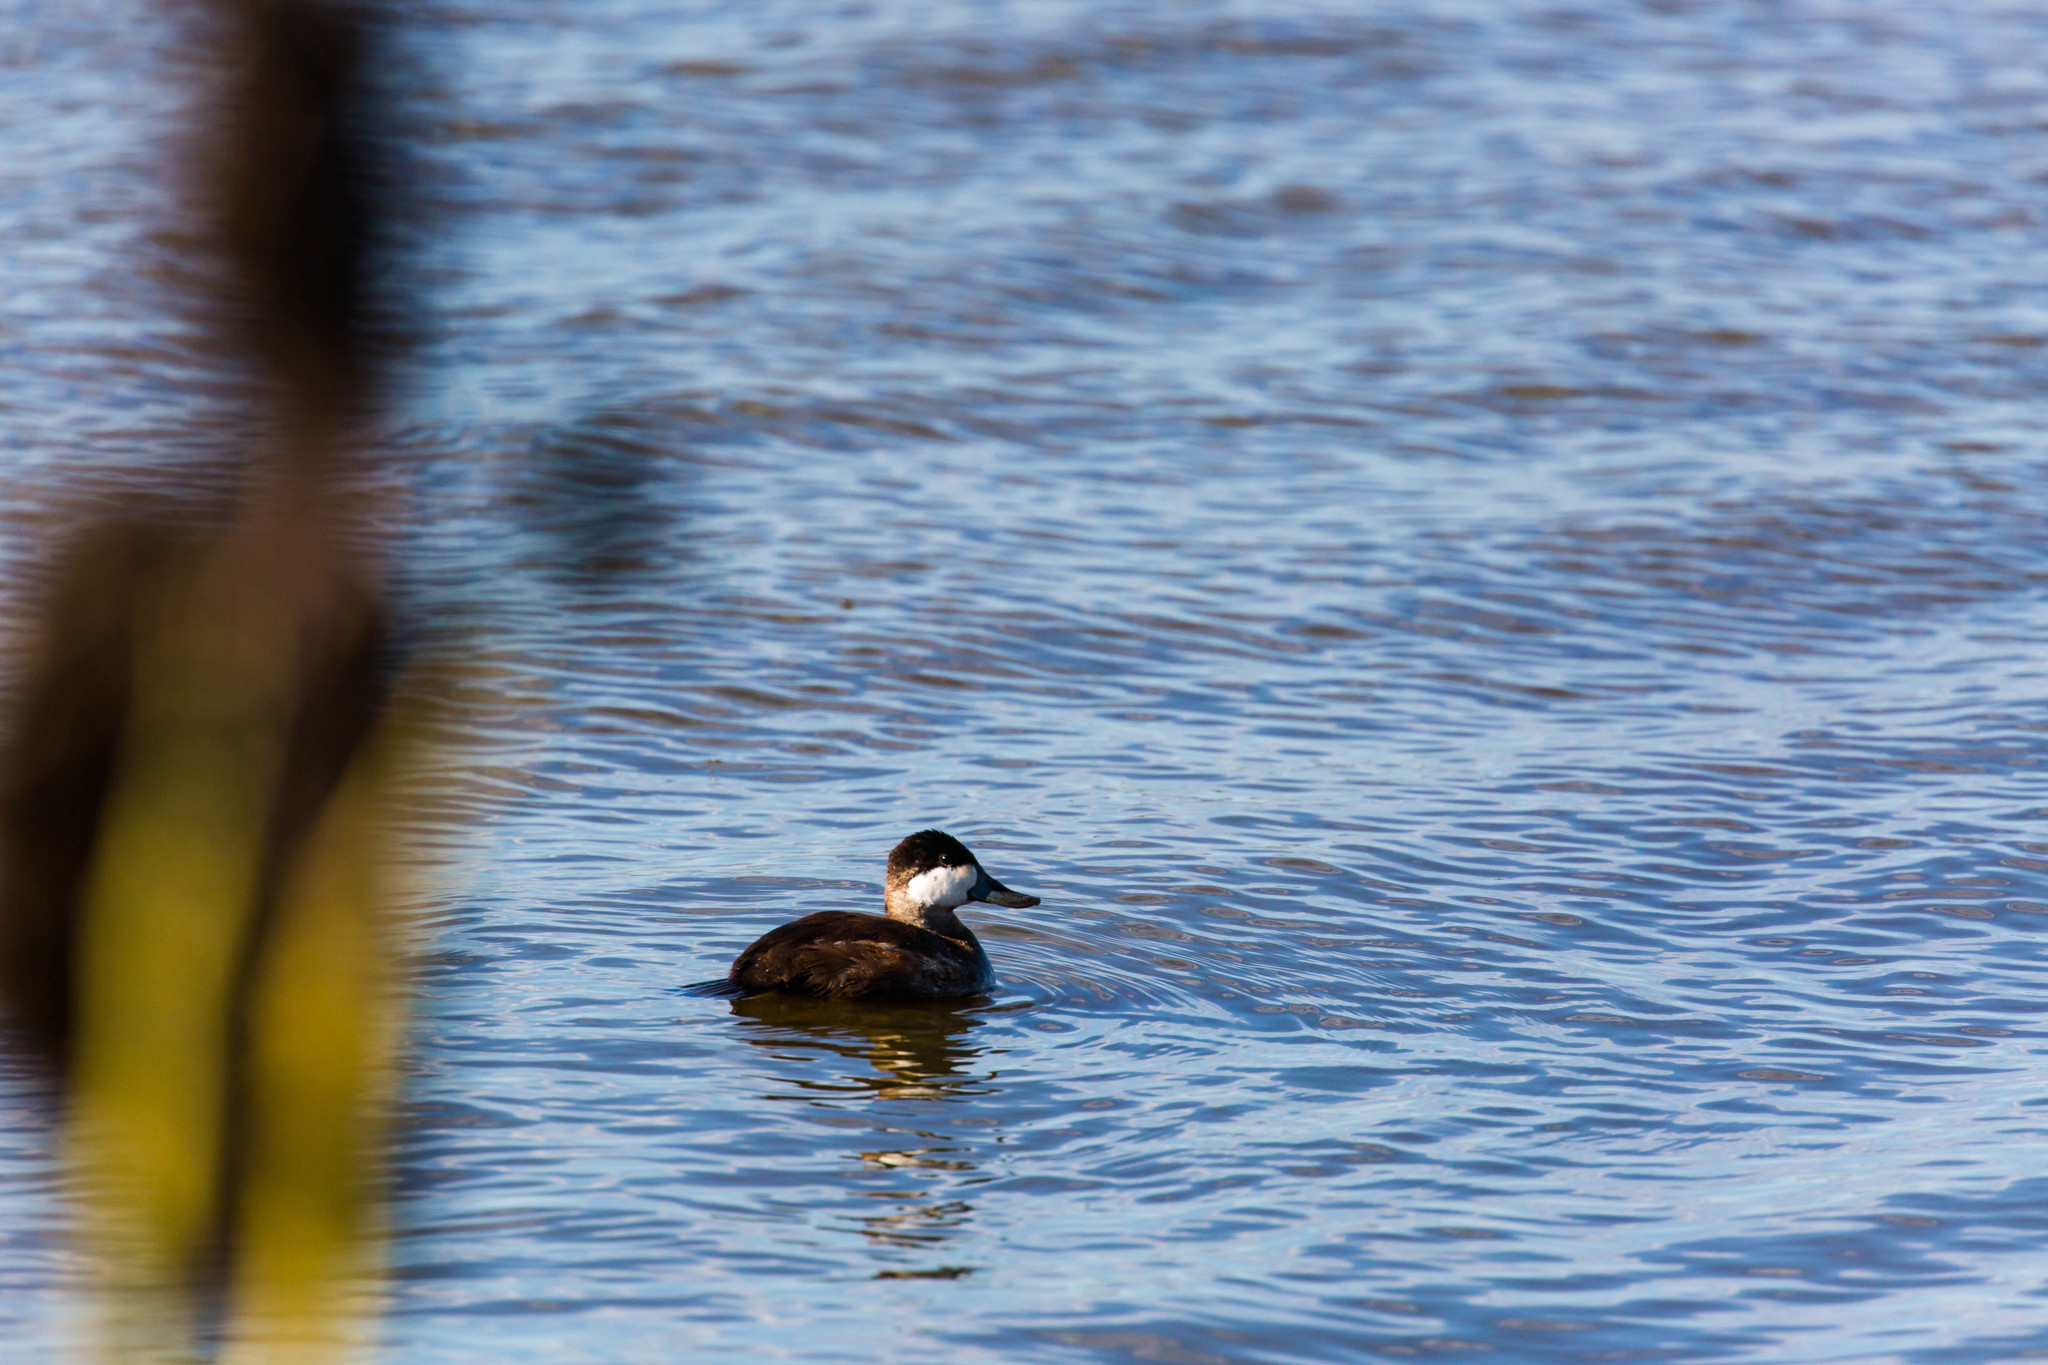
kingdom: Animalia
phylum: Chordata
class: Aves
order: Anseriformes
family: Anatidae
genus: Oxyura
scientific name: Oxyura jamaicensis
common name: Ruddy duck
